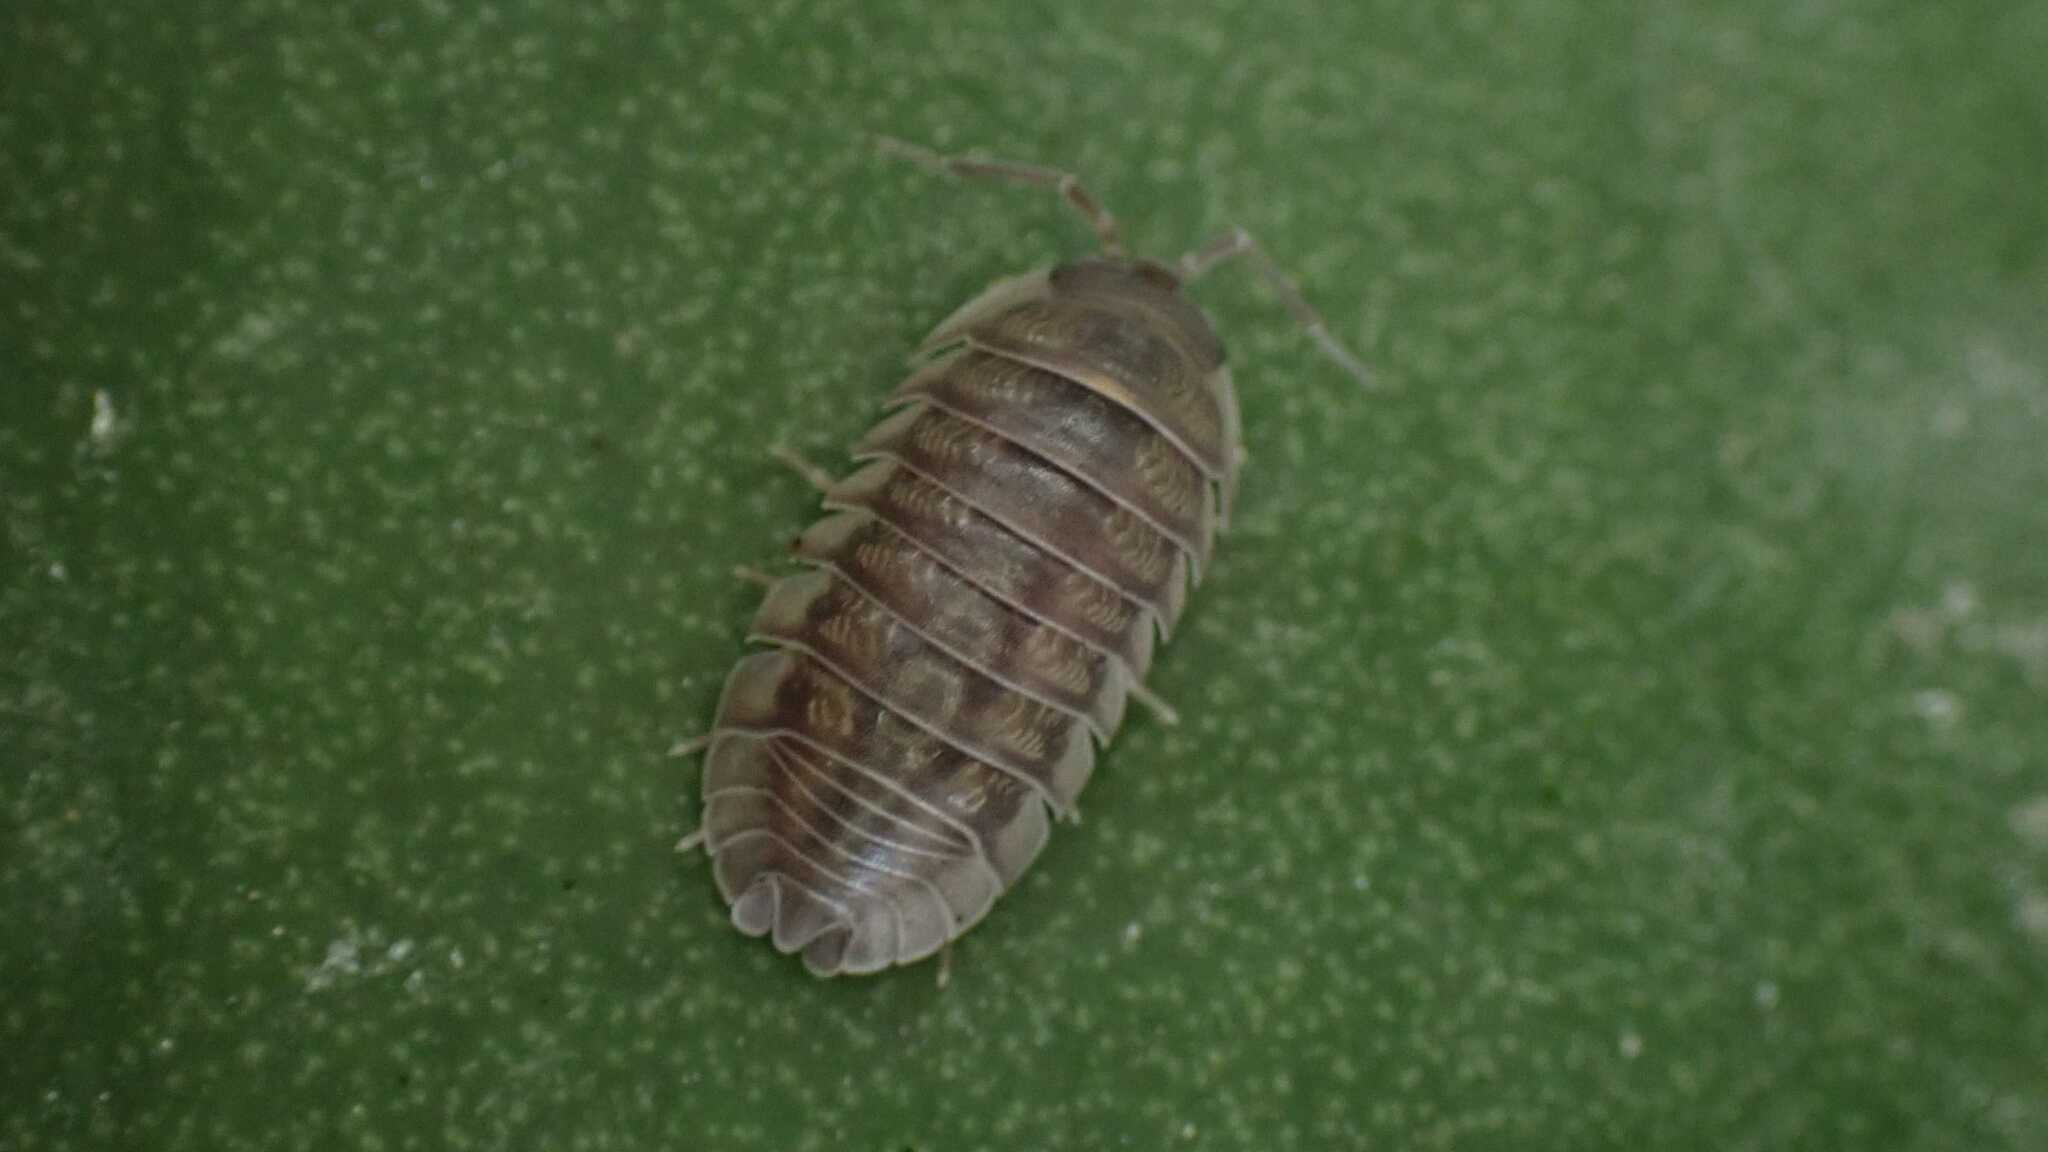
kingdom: Animalia
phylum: Arthropoda
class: Malacostraca
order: Isopoda
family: Armadillidiidae
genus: Armadillidium
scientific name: Armadillidium nasatum
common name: Isopod
